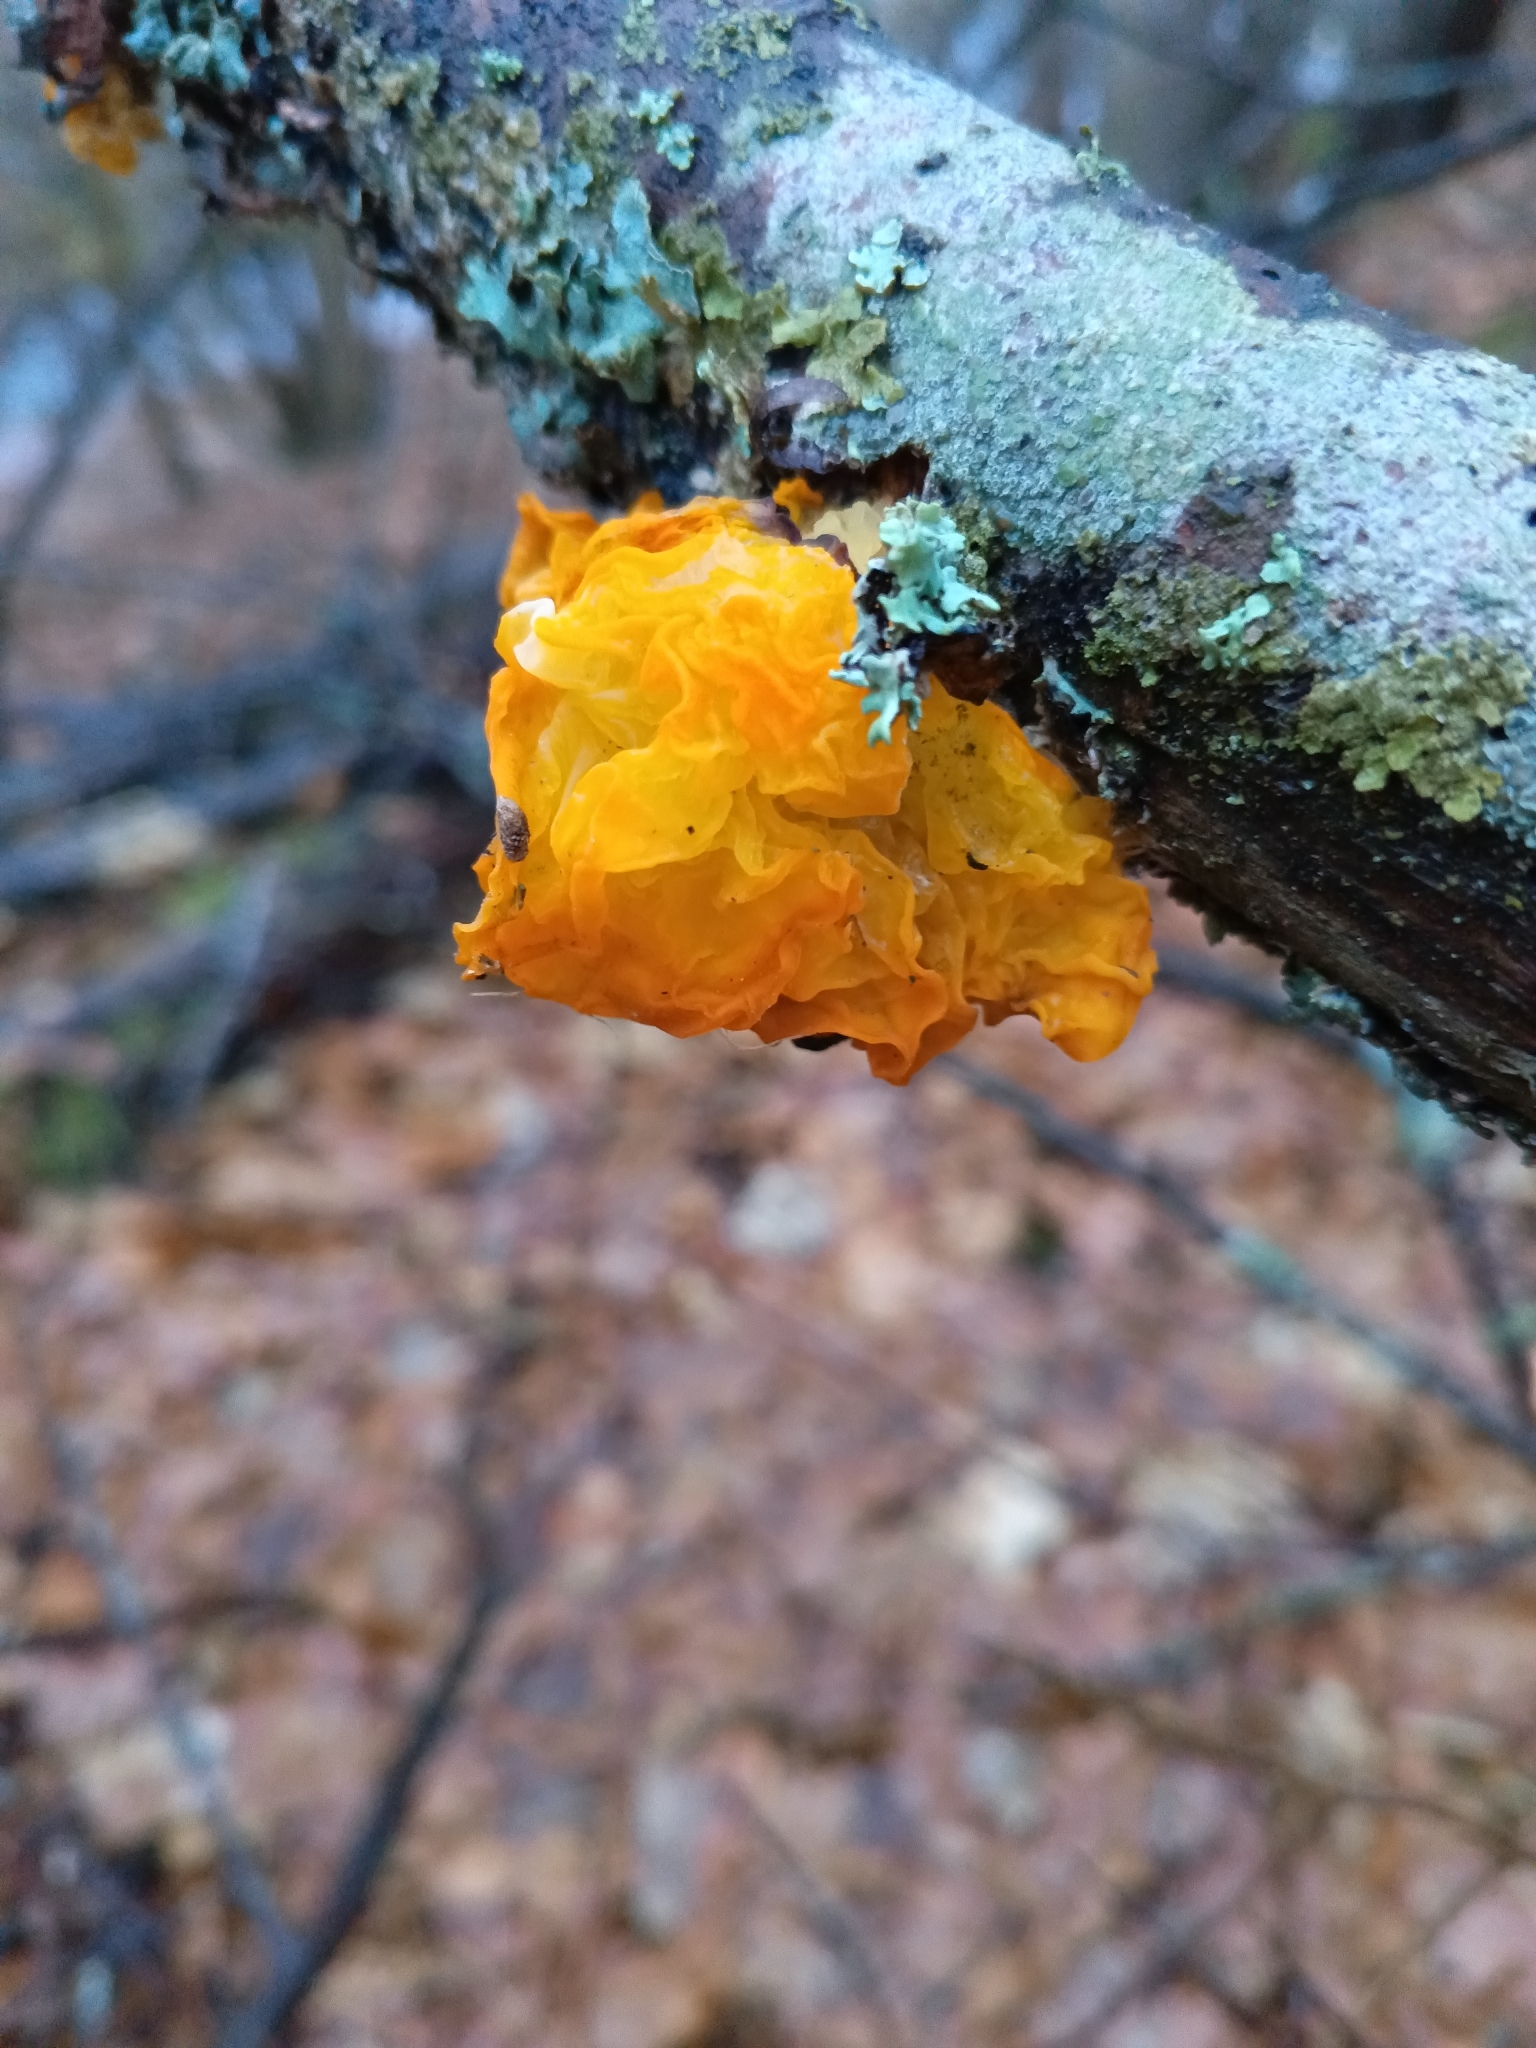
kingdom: Fungi
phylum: Basidiomycota
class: Tremellomycetes
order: Tremellales
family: Tremellaceae
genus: Tremella
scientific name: Tremella mesenterica
